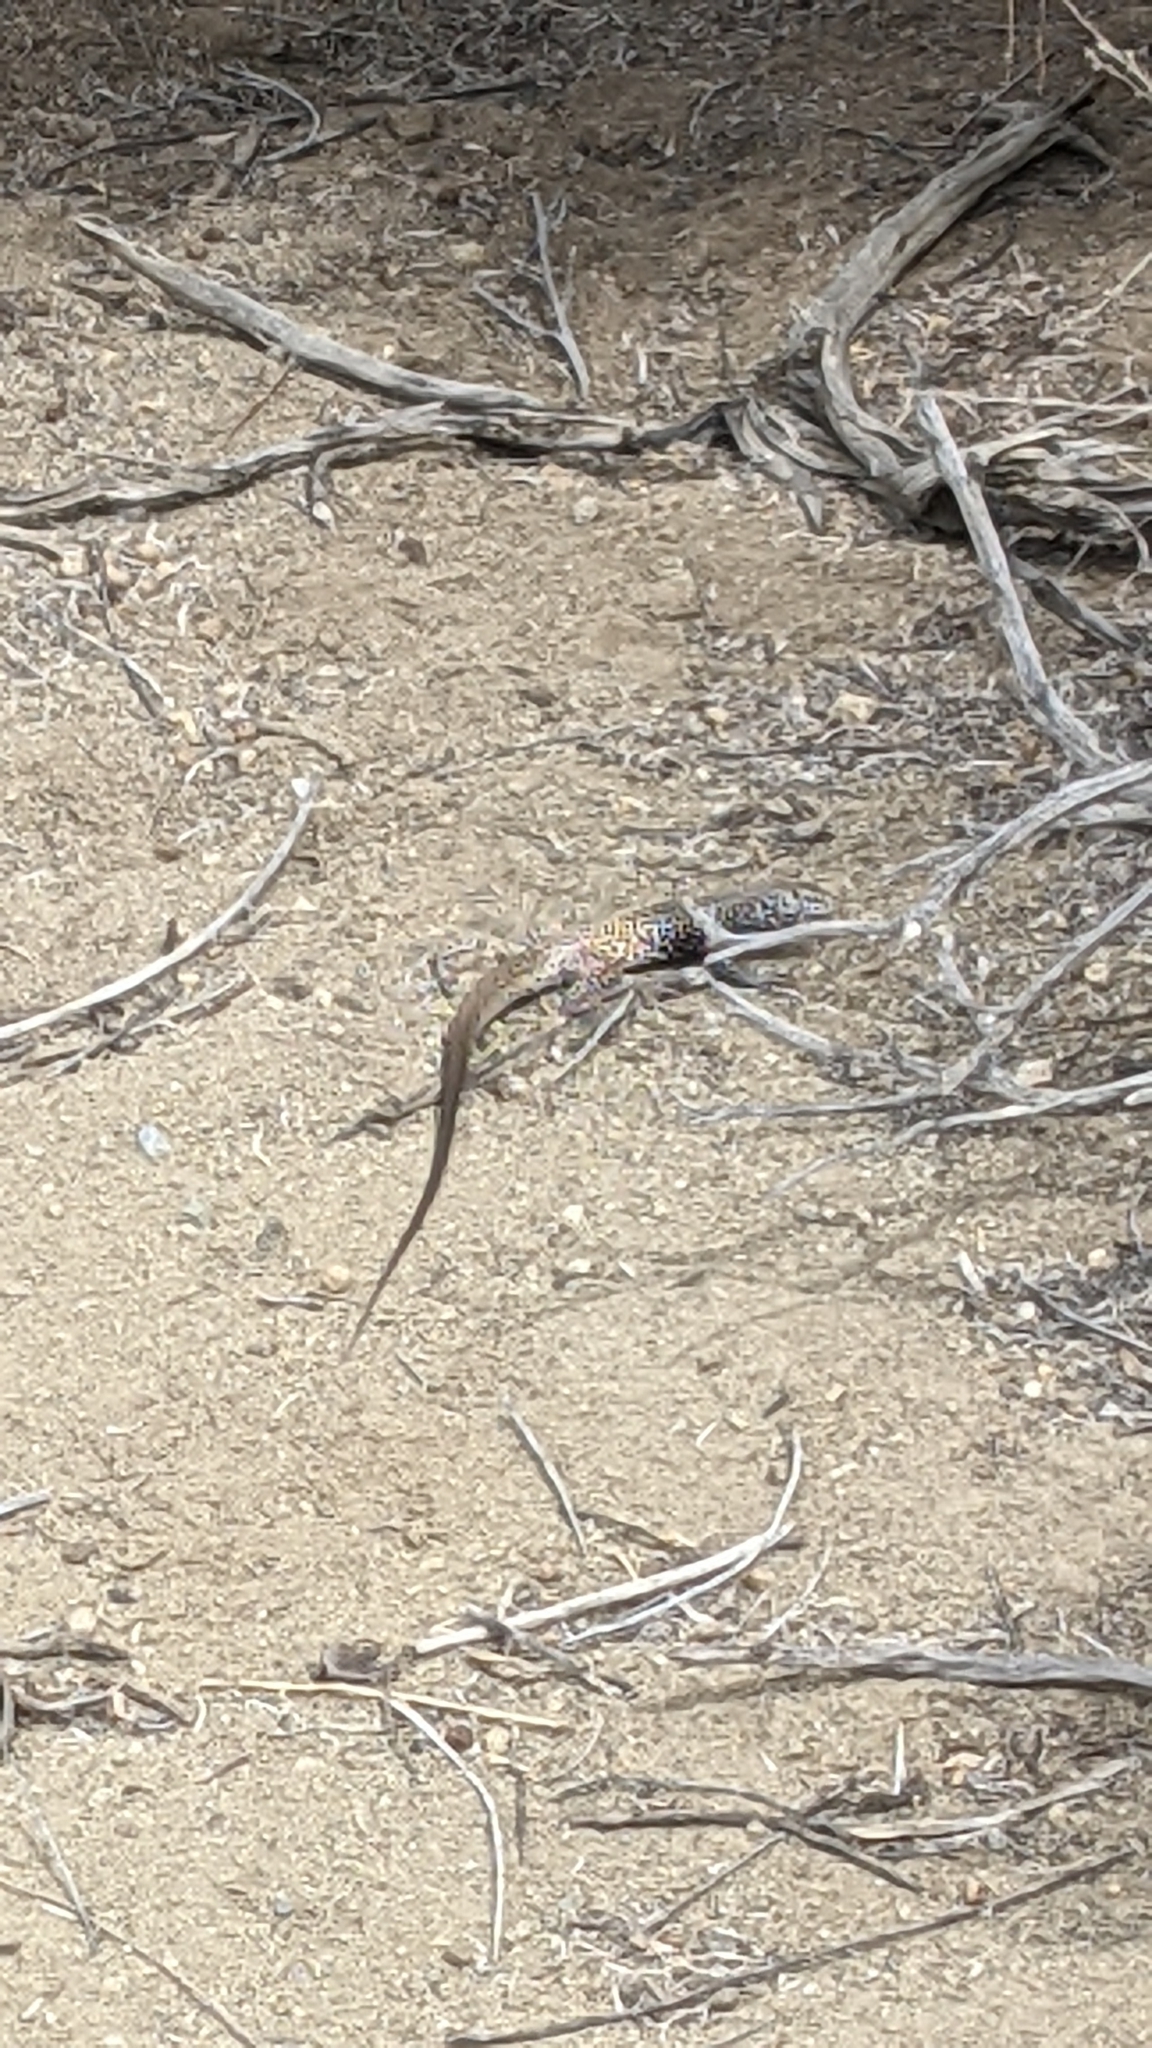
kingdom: Animalia
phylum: Chordata
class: Squamata
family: Teiidae
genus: Aspidoscelis
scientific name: Aspidoscelis tigris
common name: Tiger whiptail
